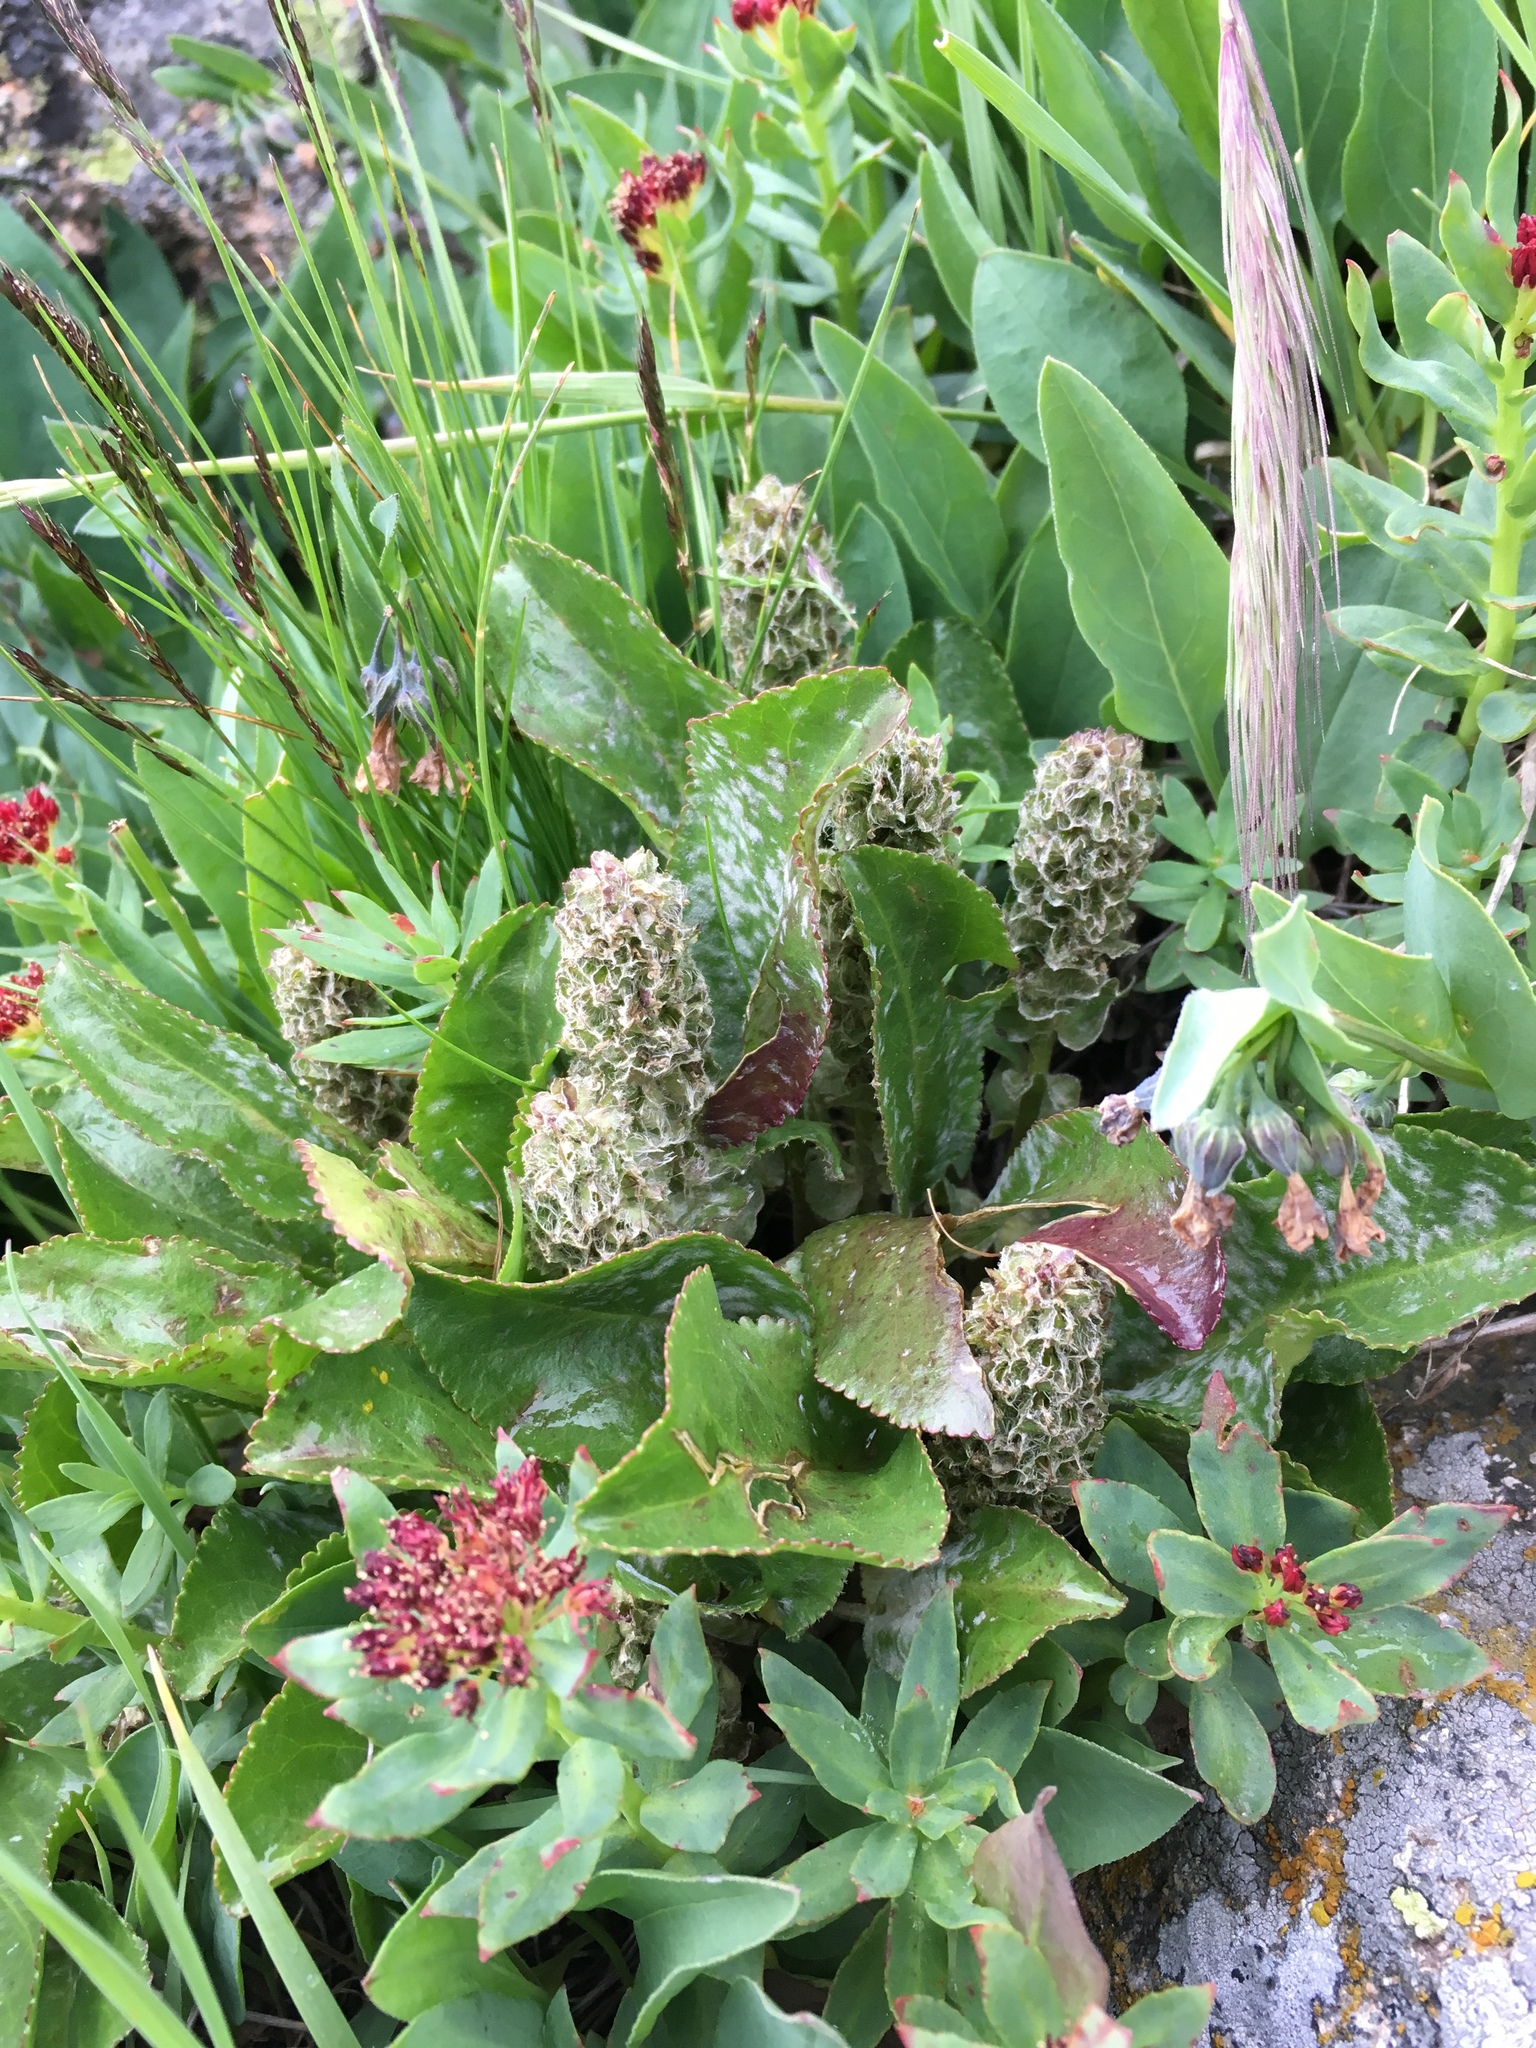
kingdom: Plantae
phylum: Tracheophyta
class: Magnoliopsida
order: Lamiales
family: Plantaginaceae
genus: Synthyris
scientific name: Synthyris alpina
